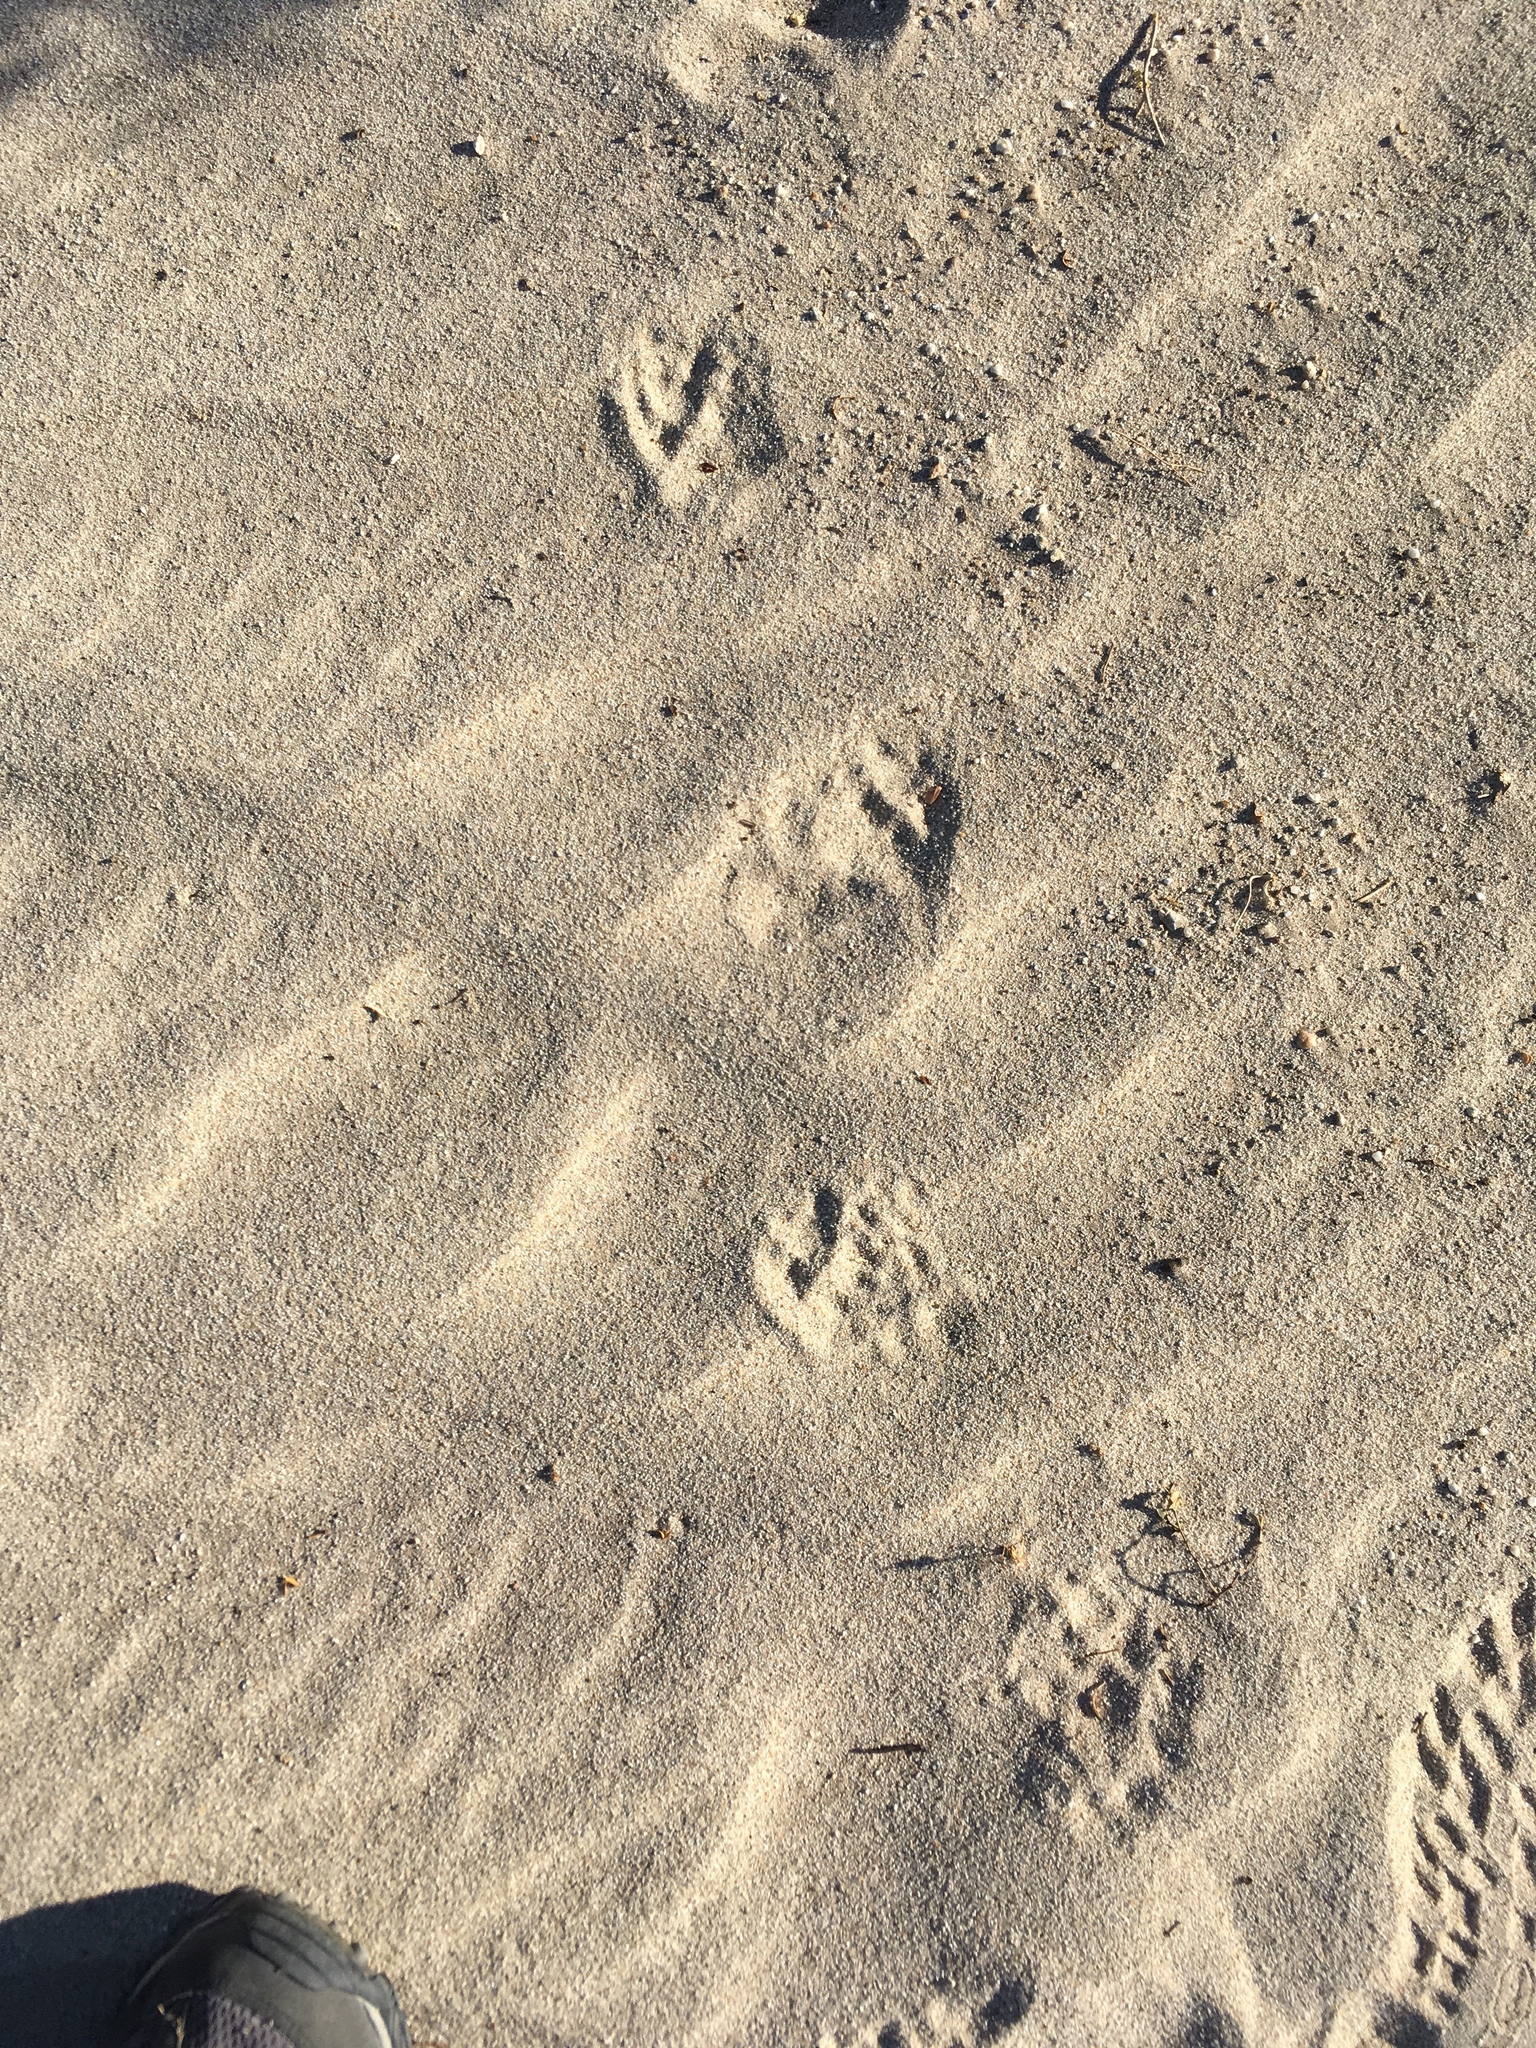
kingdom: Animalia
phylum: Chordata
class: Mammalia
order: Carnivora
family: Mustelidae
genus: Taxidea
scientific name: Taxidea taxus
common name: American badger
